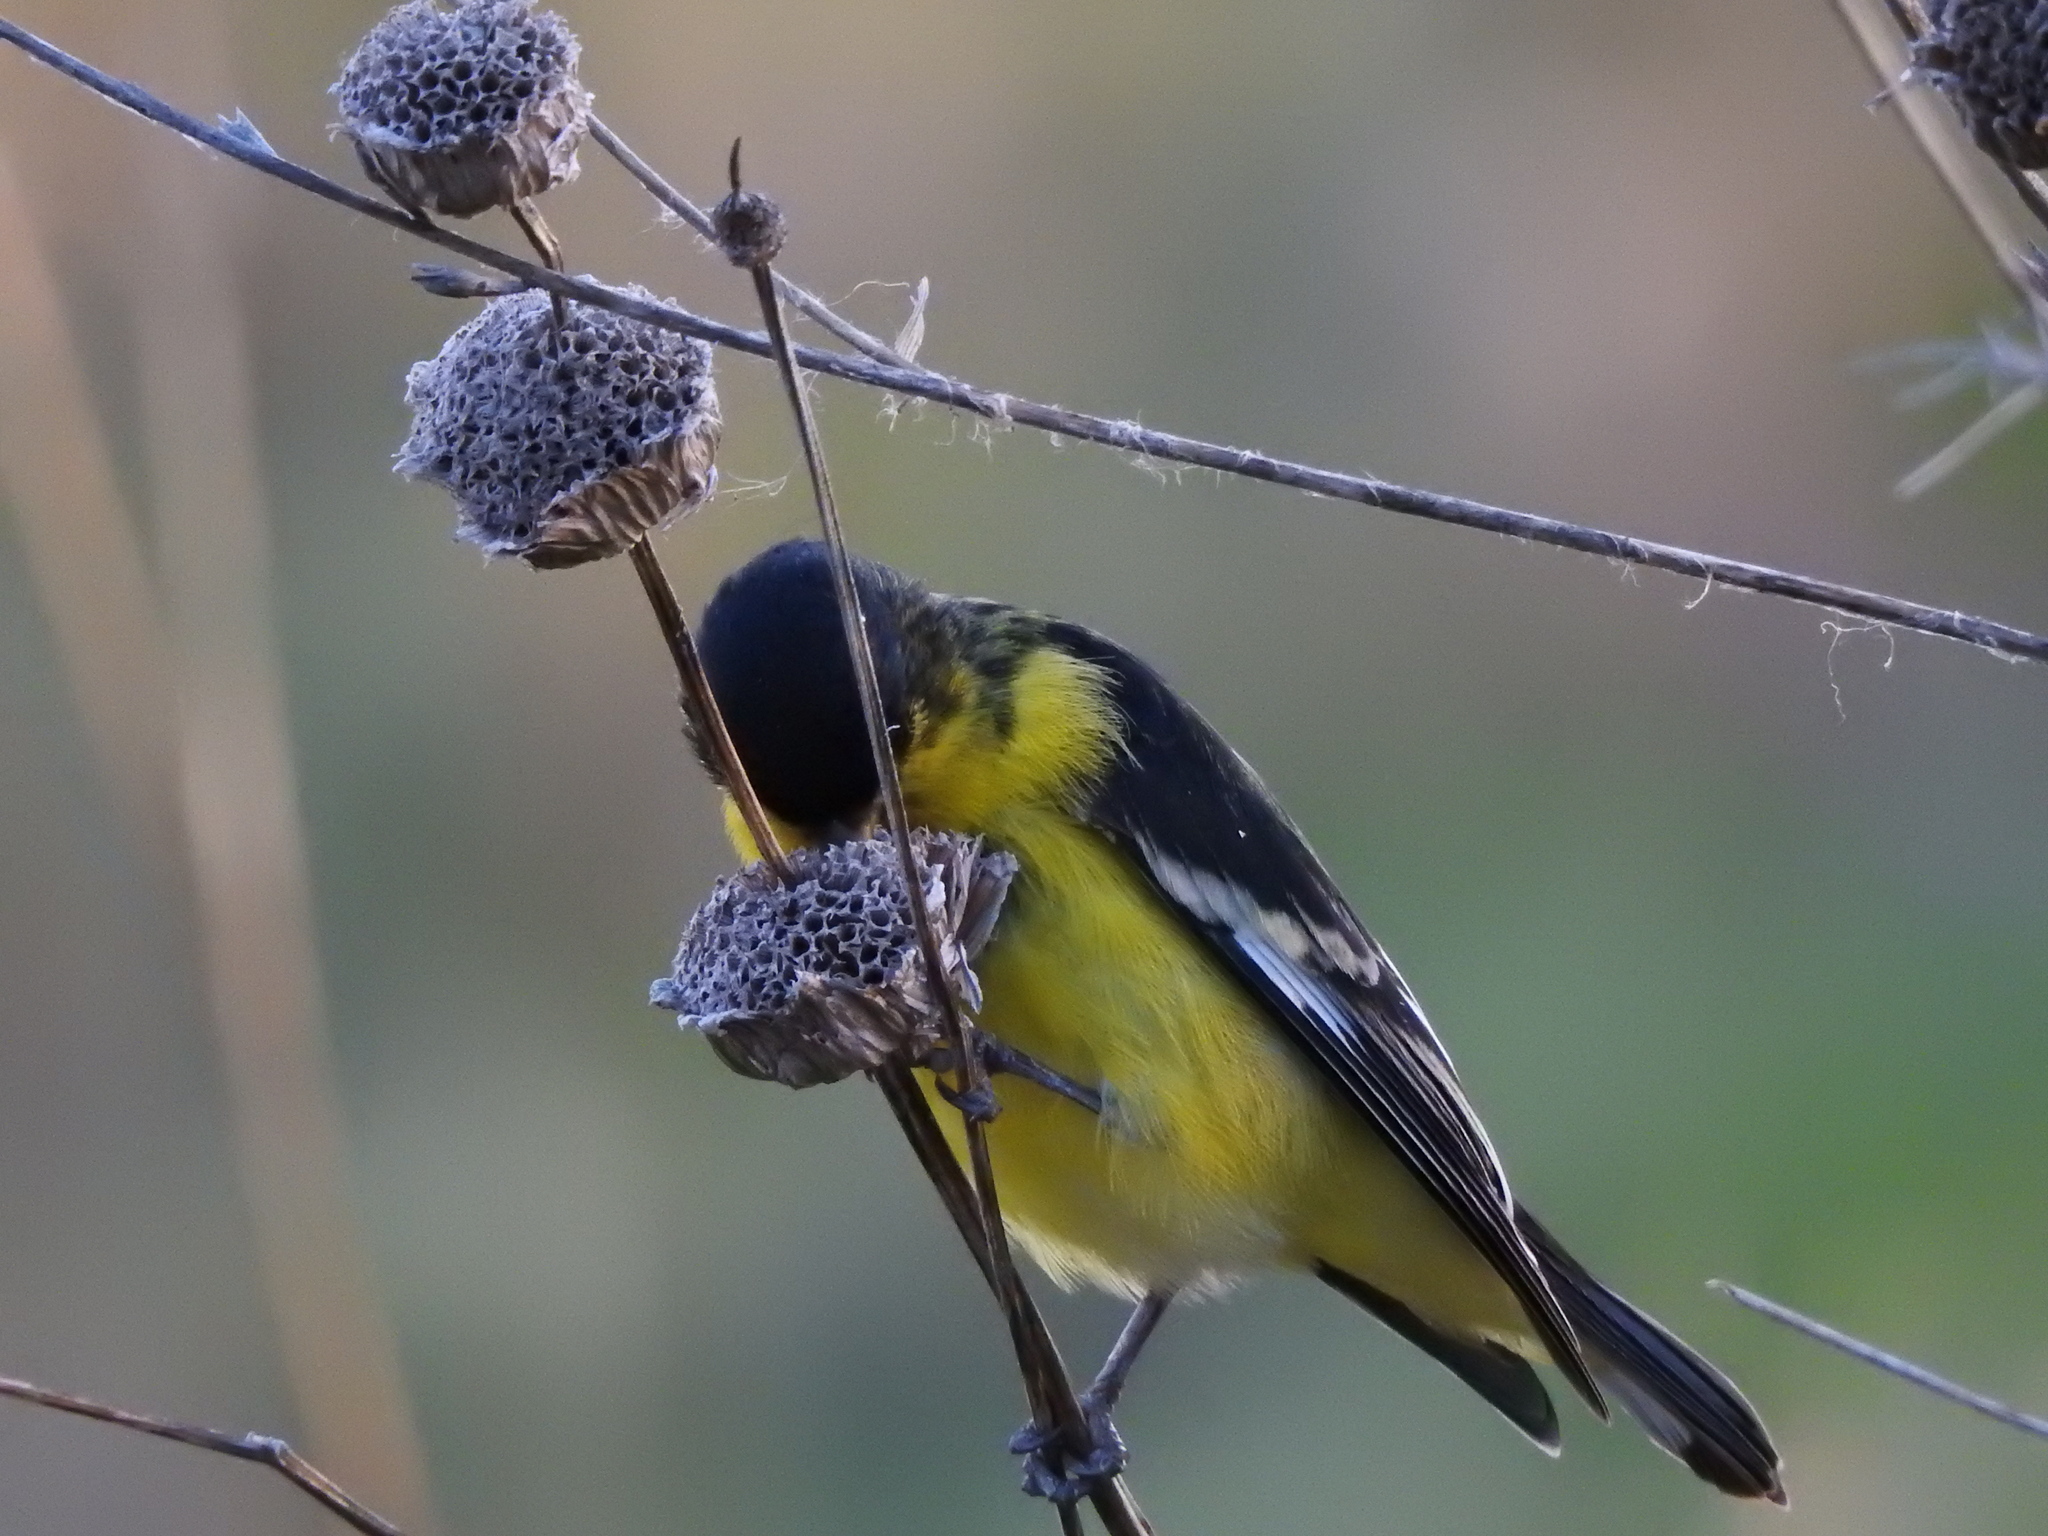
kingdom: Animalia
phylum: Chordata
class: Aves
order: Passeriformes
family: Fringillidae
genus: Spinus
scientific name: Spinus psaltria
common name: Lesser goldfinch
